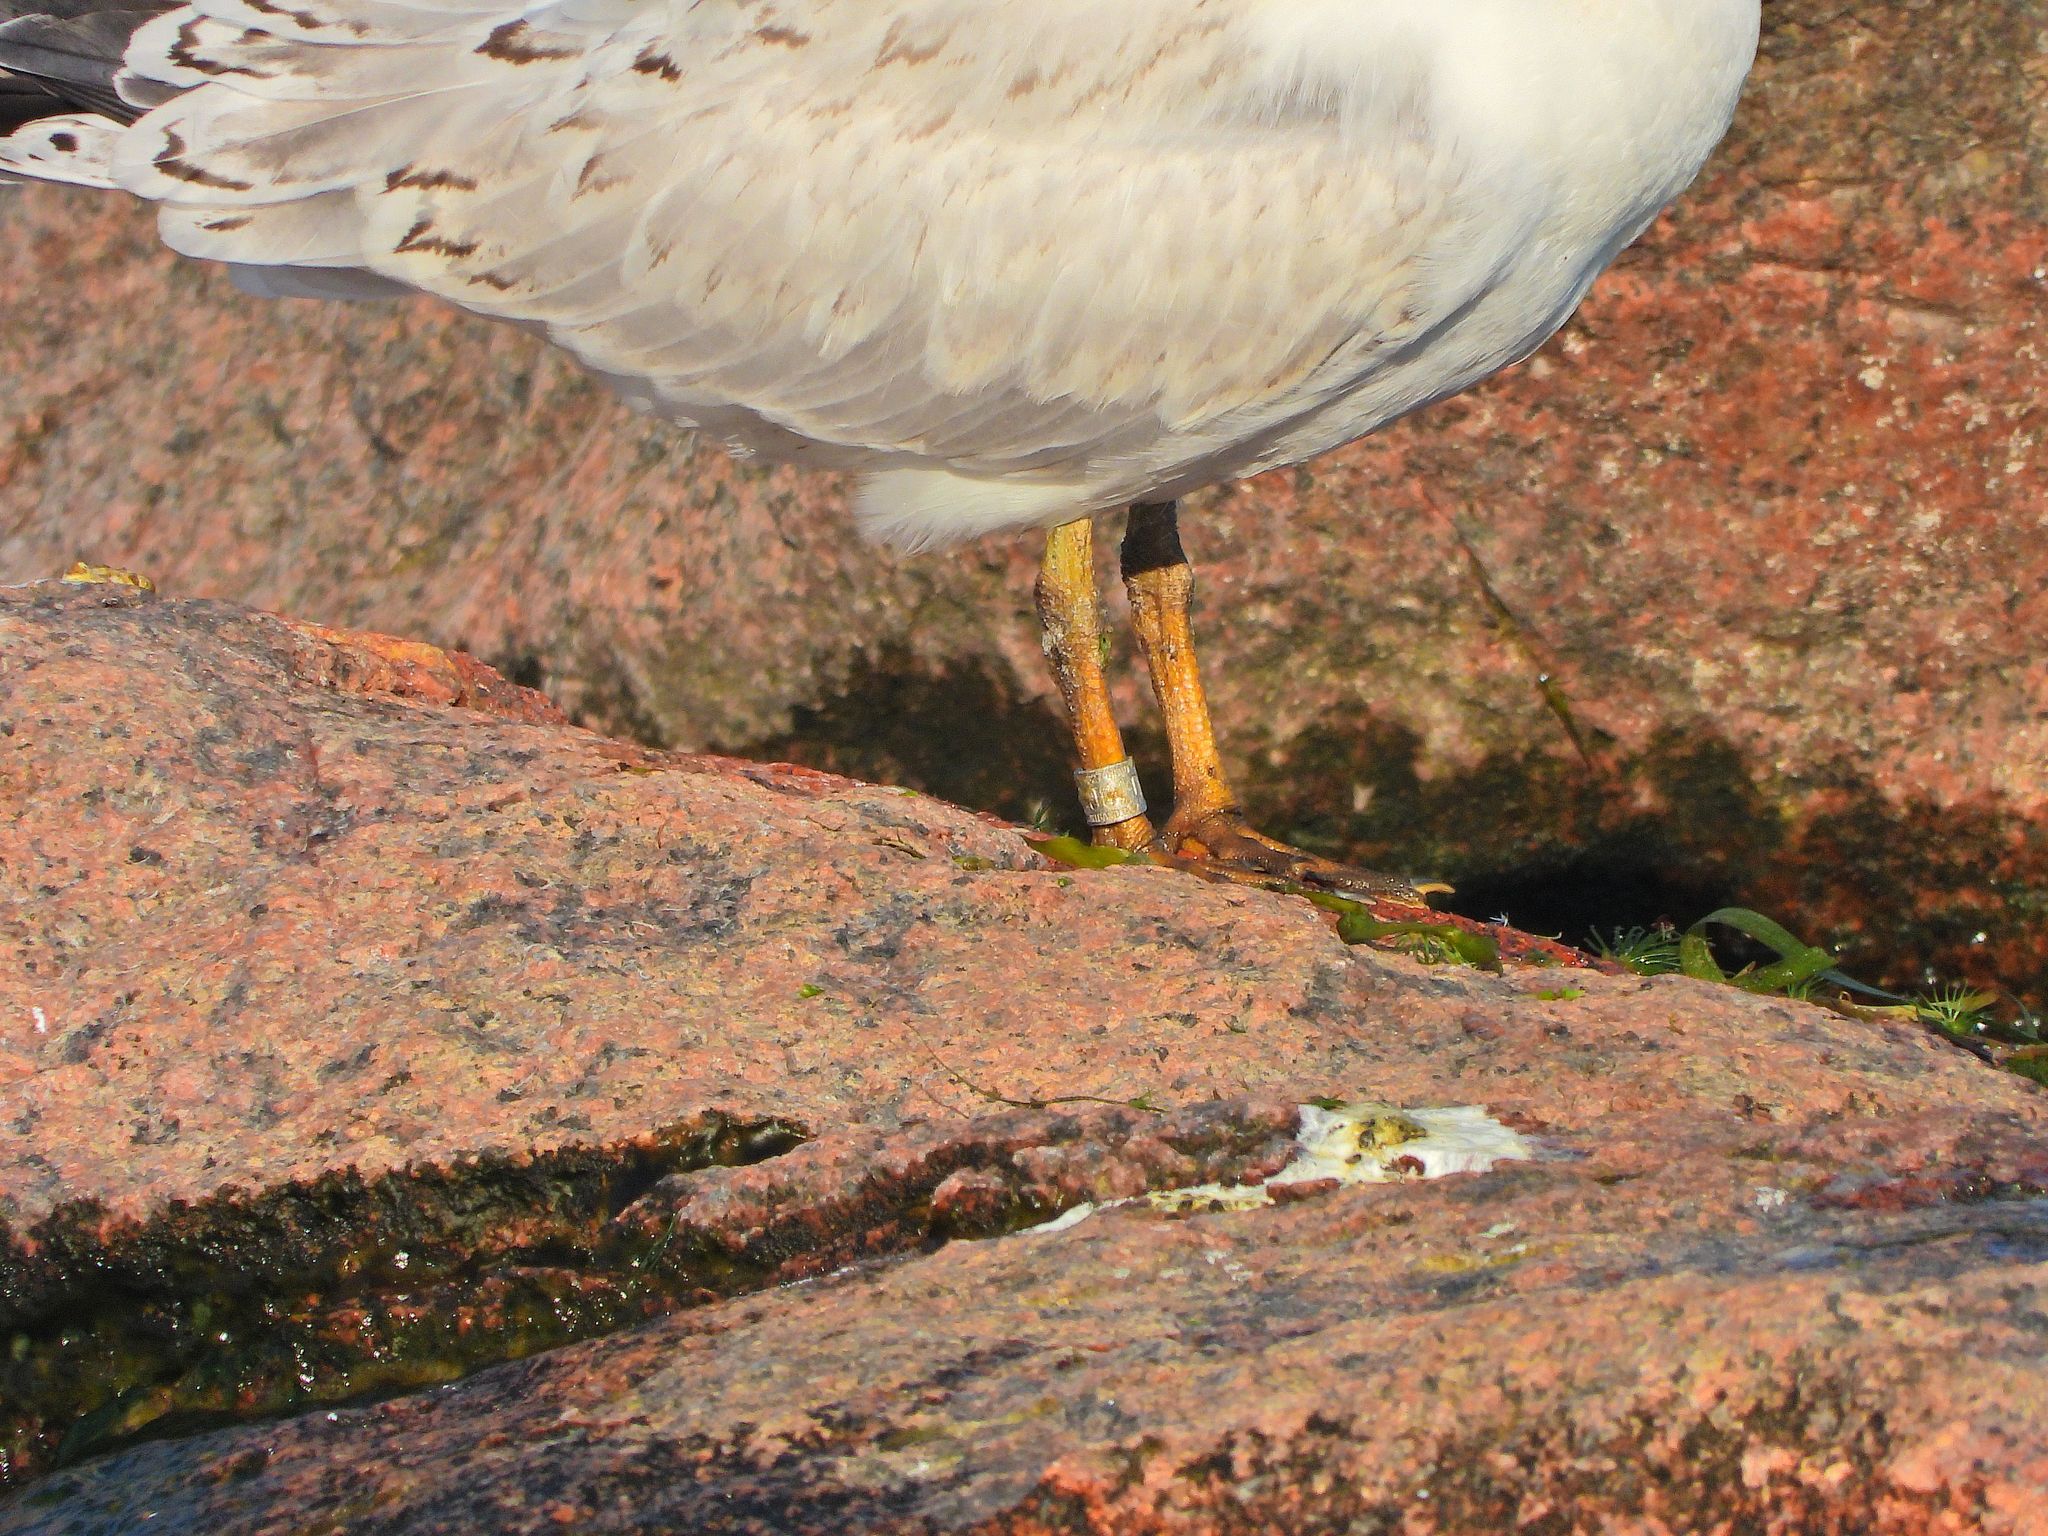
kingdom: Animalia
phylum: Chordata
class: Aves
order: Charadriiformes
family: Laridae
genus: Hydroprogne
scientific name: Hydroprogne caspia
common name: Caspian tern
